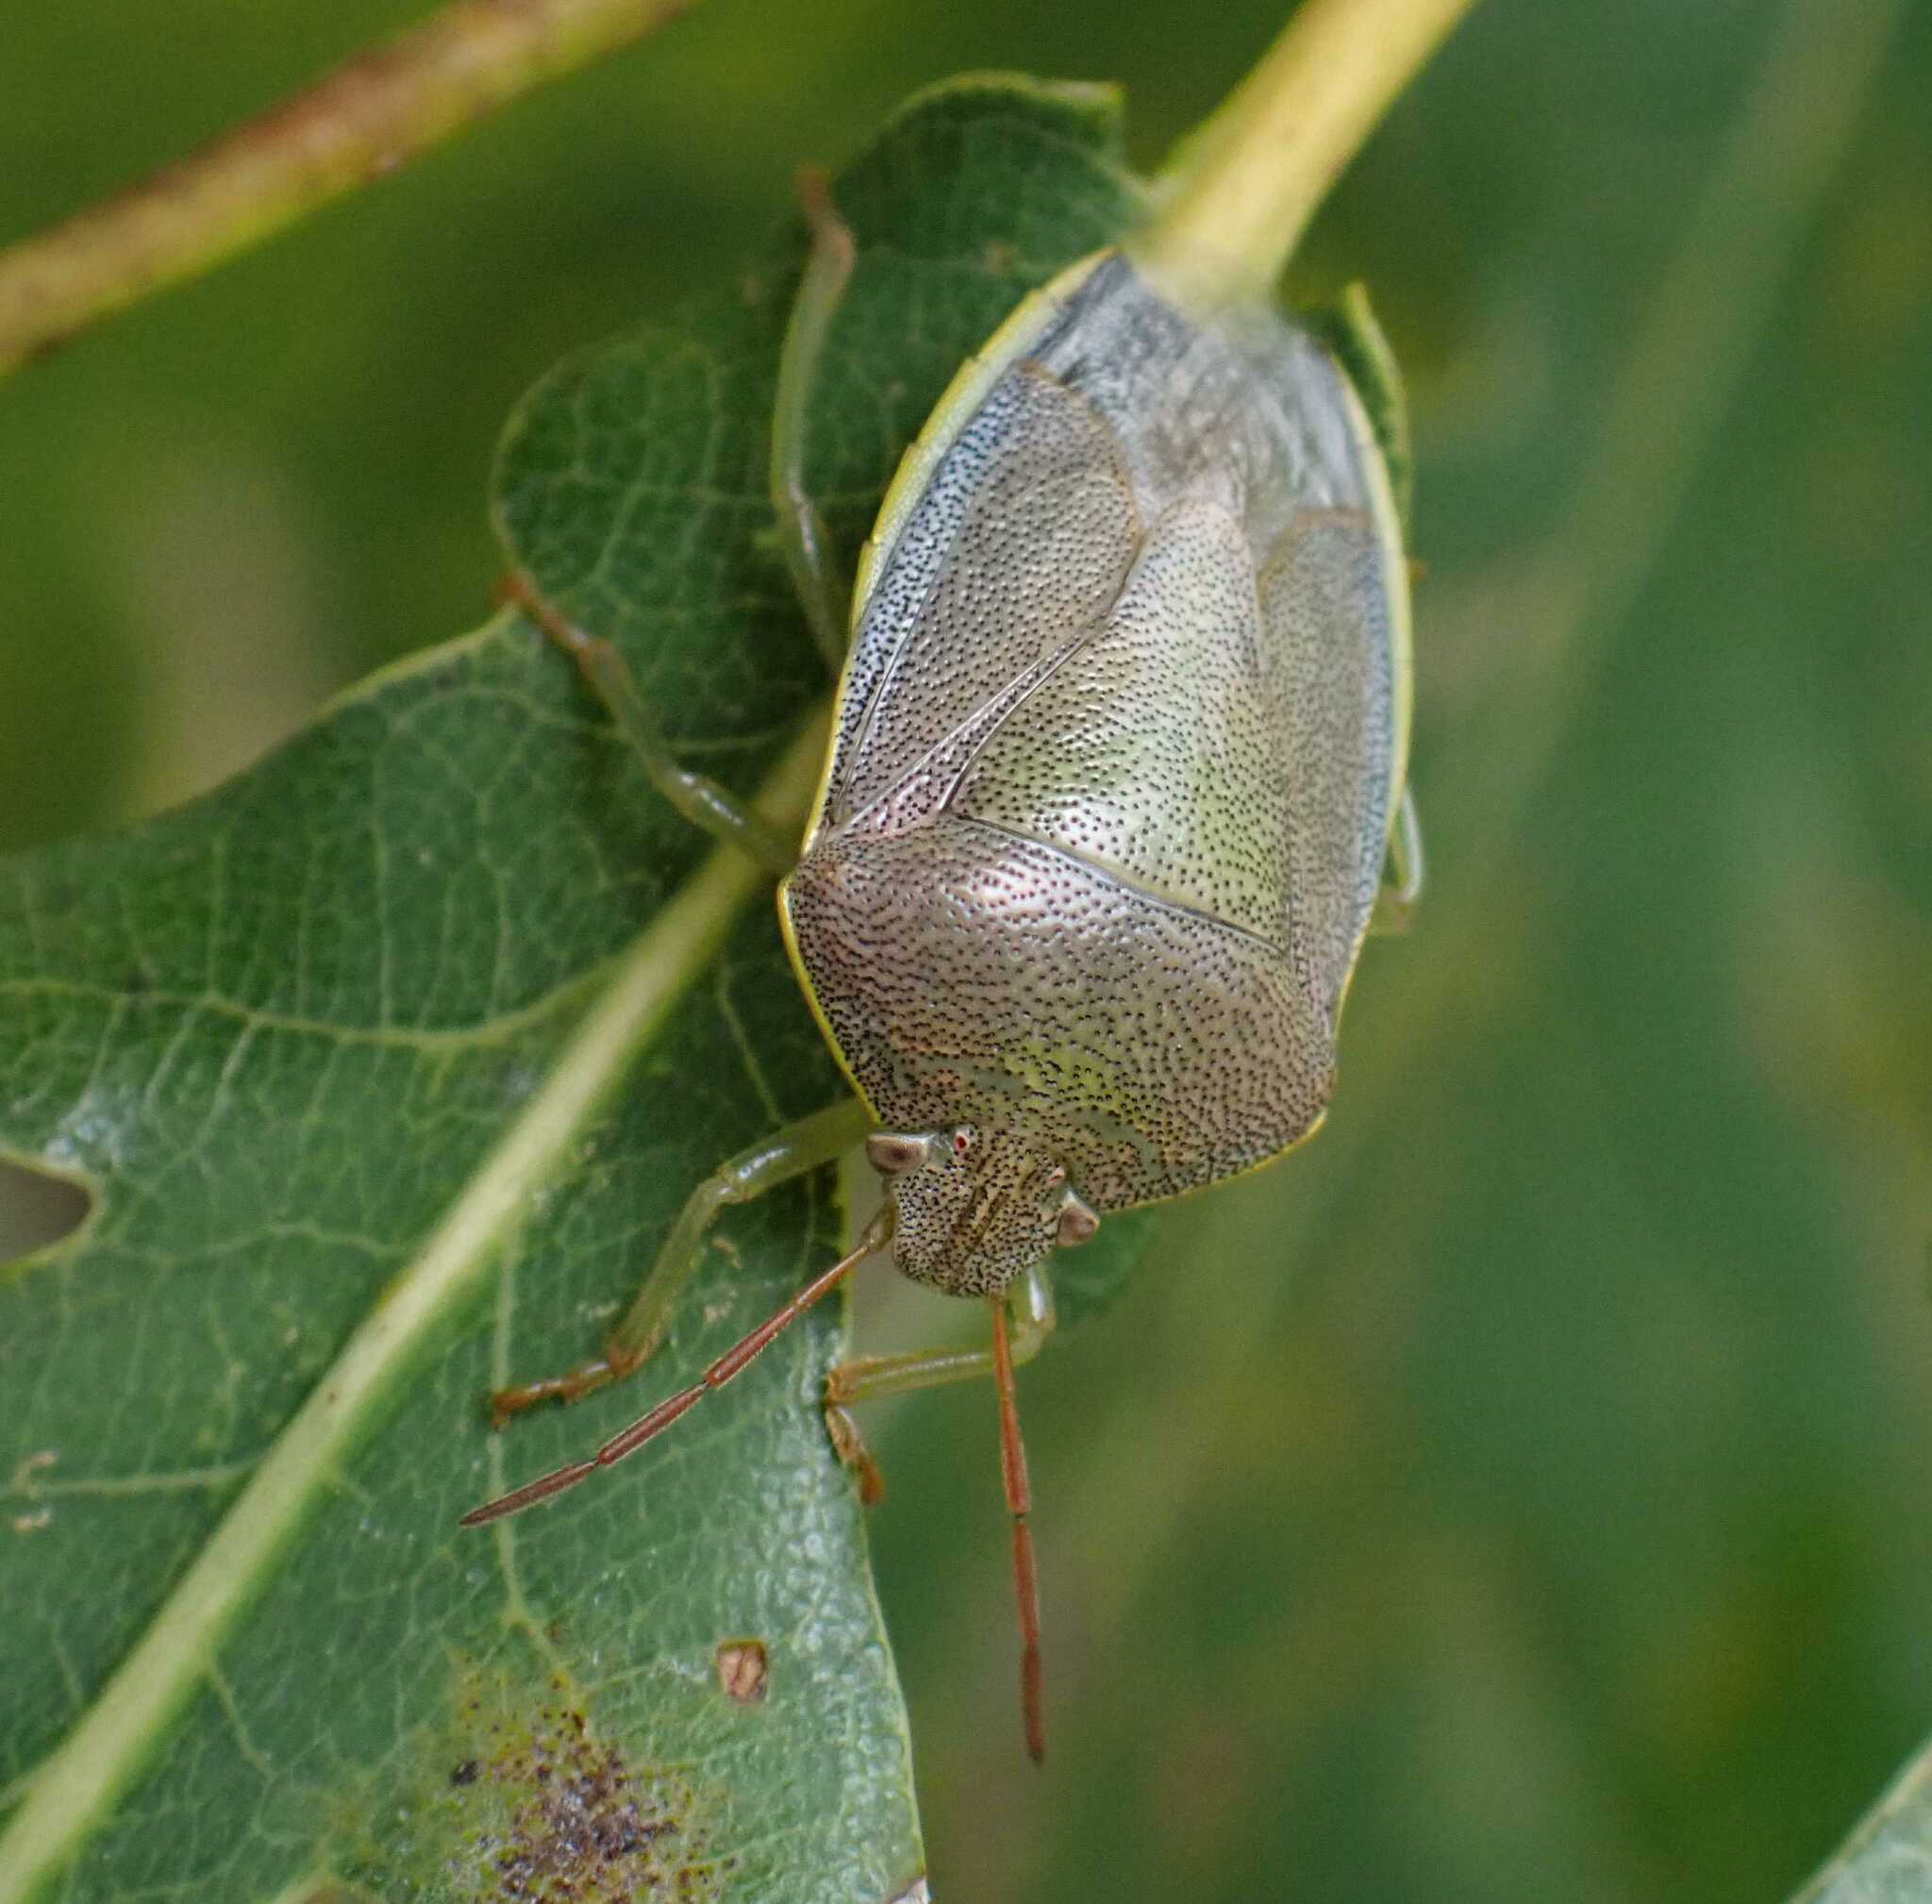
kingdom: Animalia
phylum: Arthropoda
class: Insecta
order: Hemiptera
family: Pentatomidae
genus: Piezodorus
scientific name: Piezodorus lituratus
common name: Stink bug
